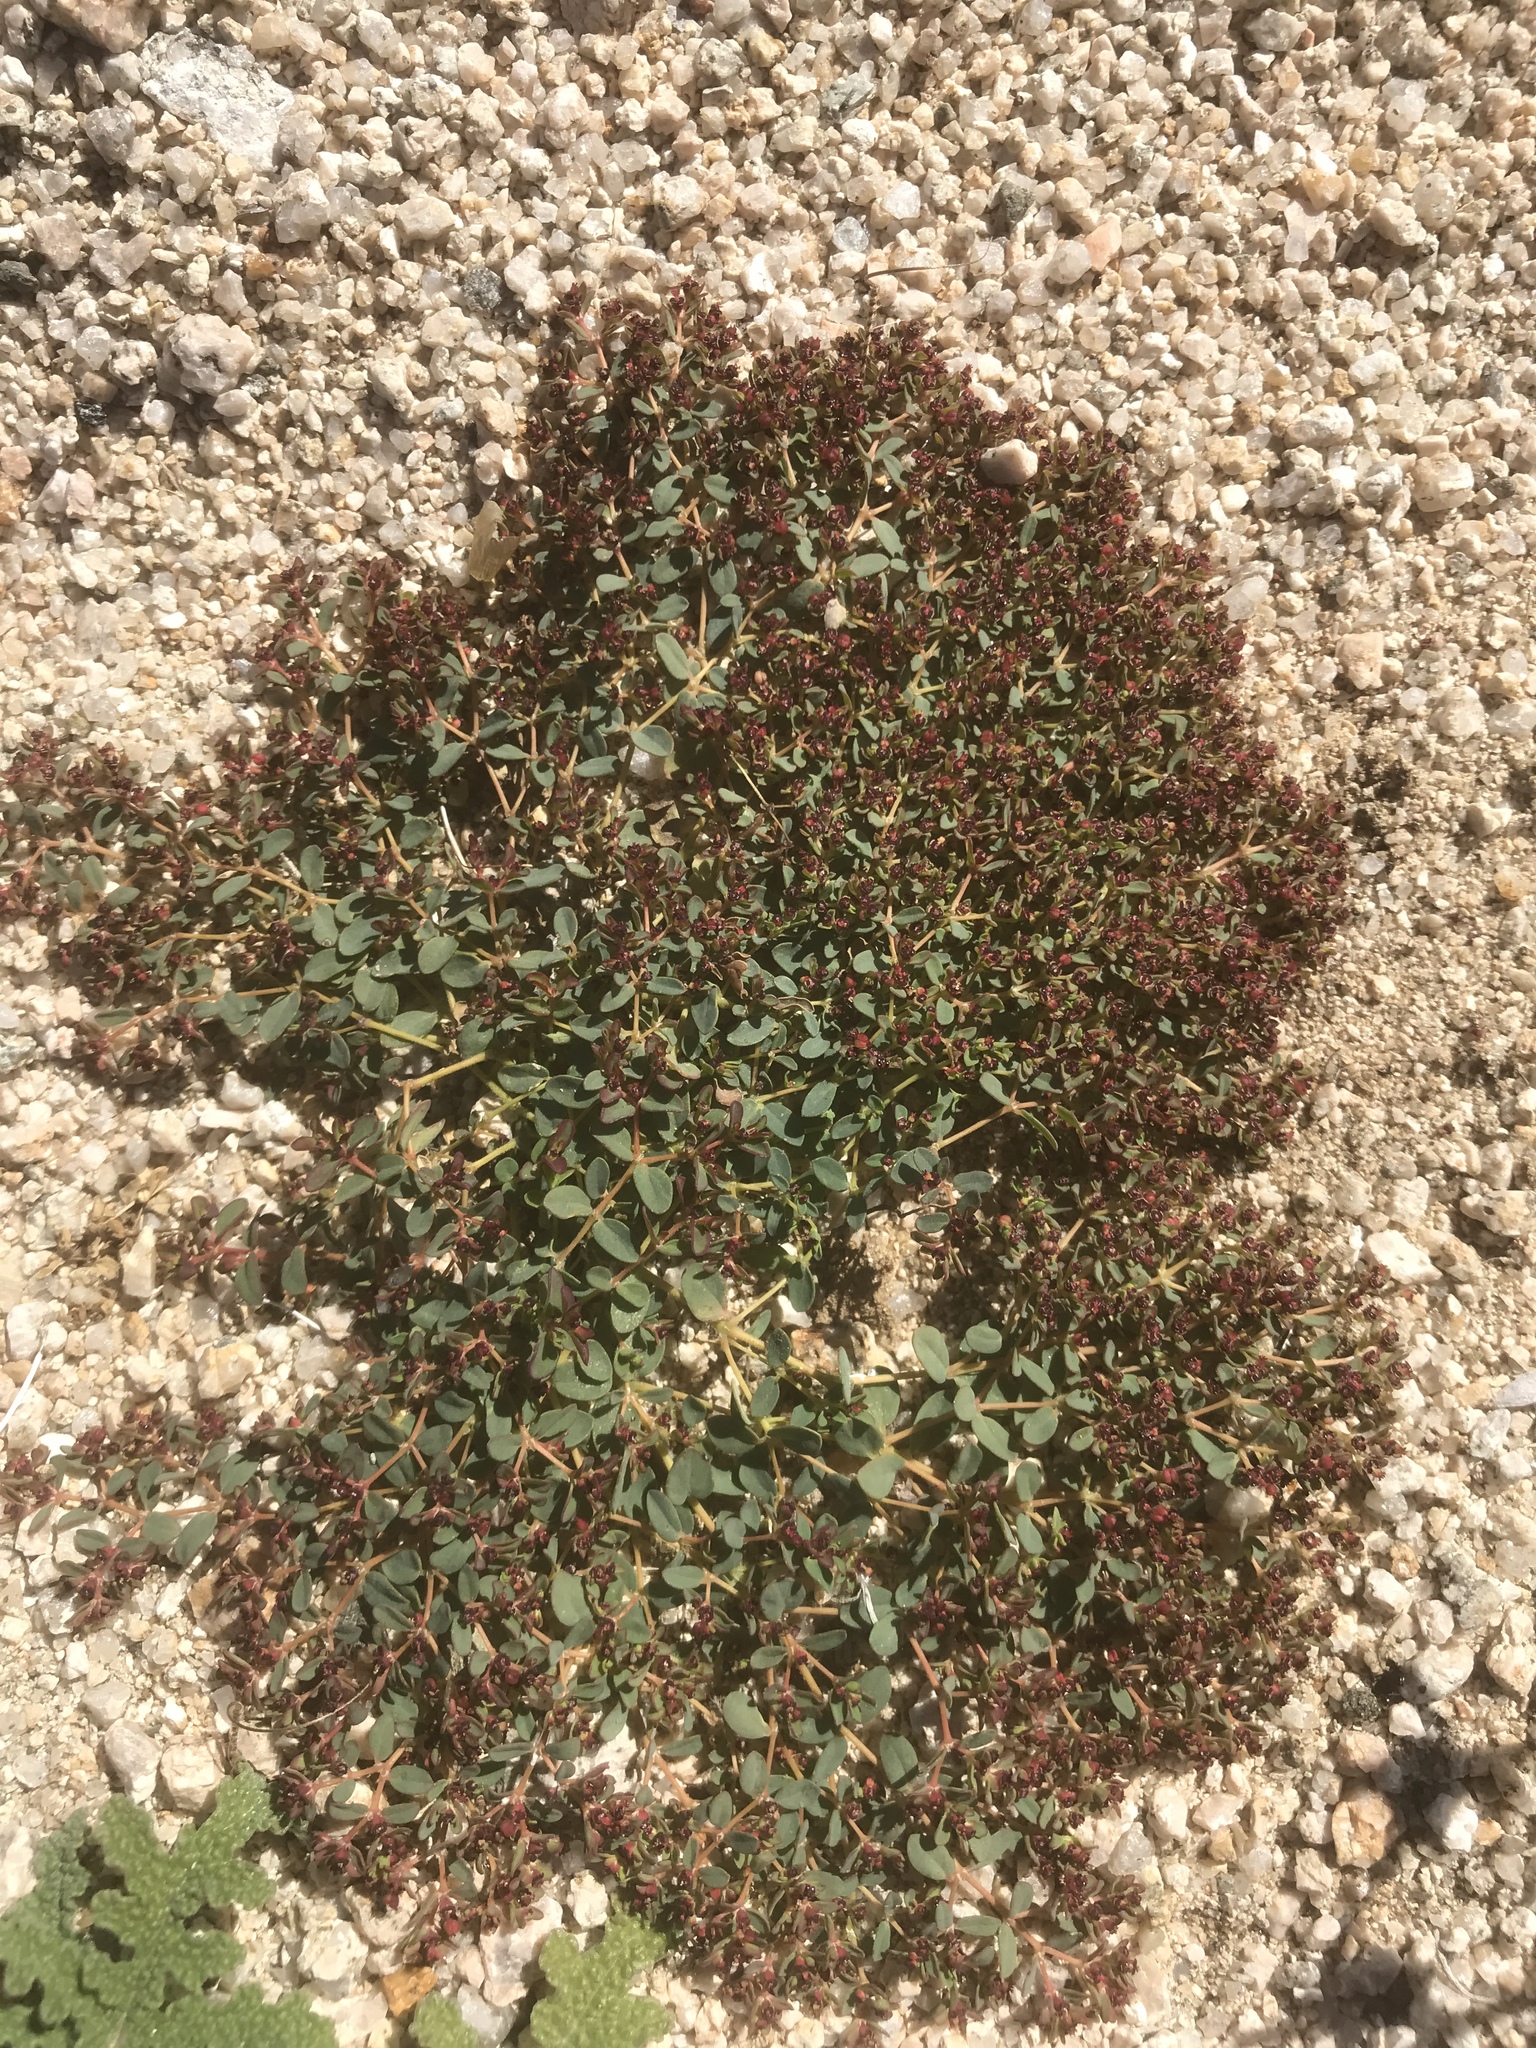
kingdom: Plantae
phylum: Tracheophyta
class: Magnoliopsida
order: Malpighiales
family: Euphorbiaceae
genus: Euphorbia
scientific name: Euphorbia polycarpa
